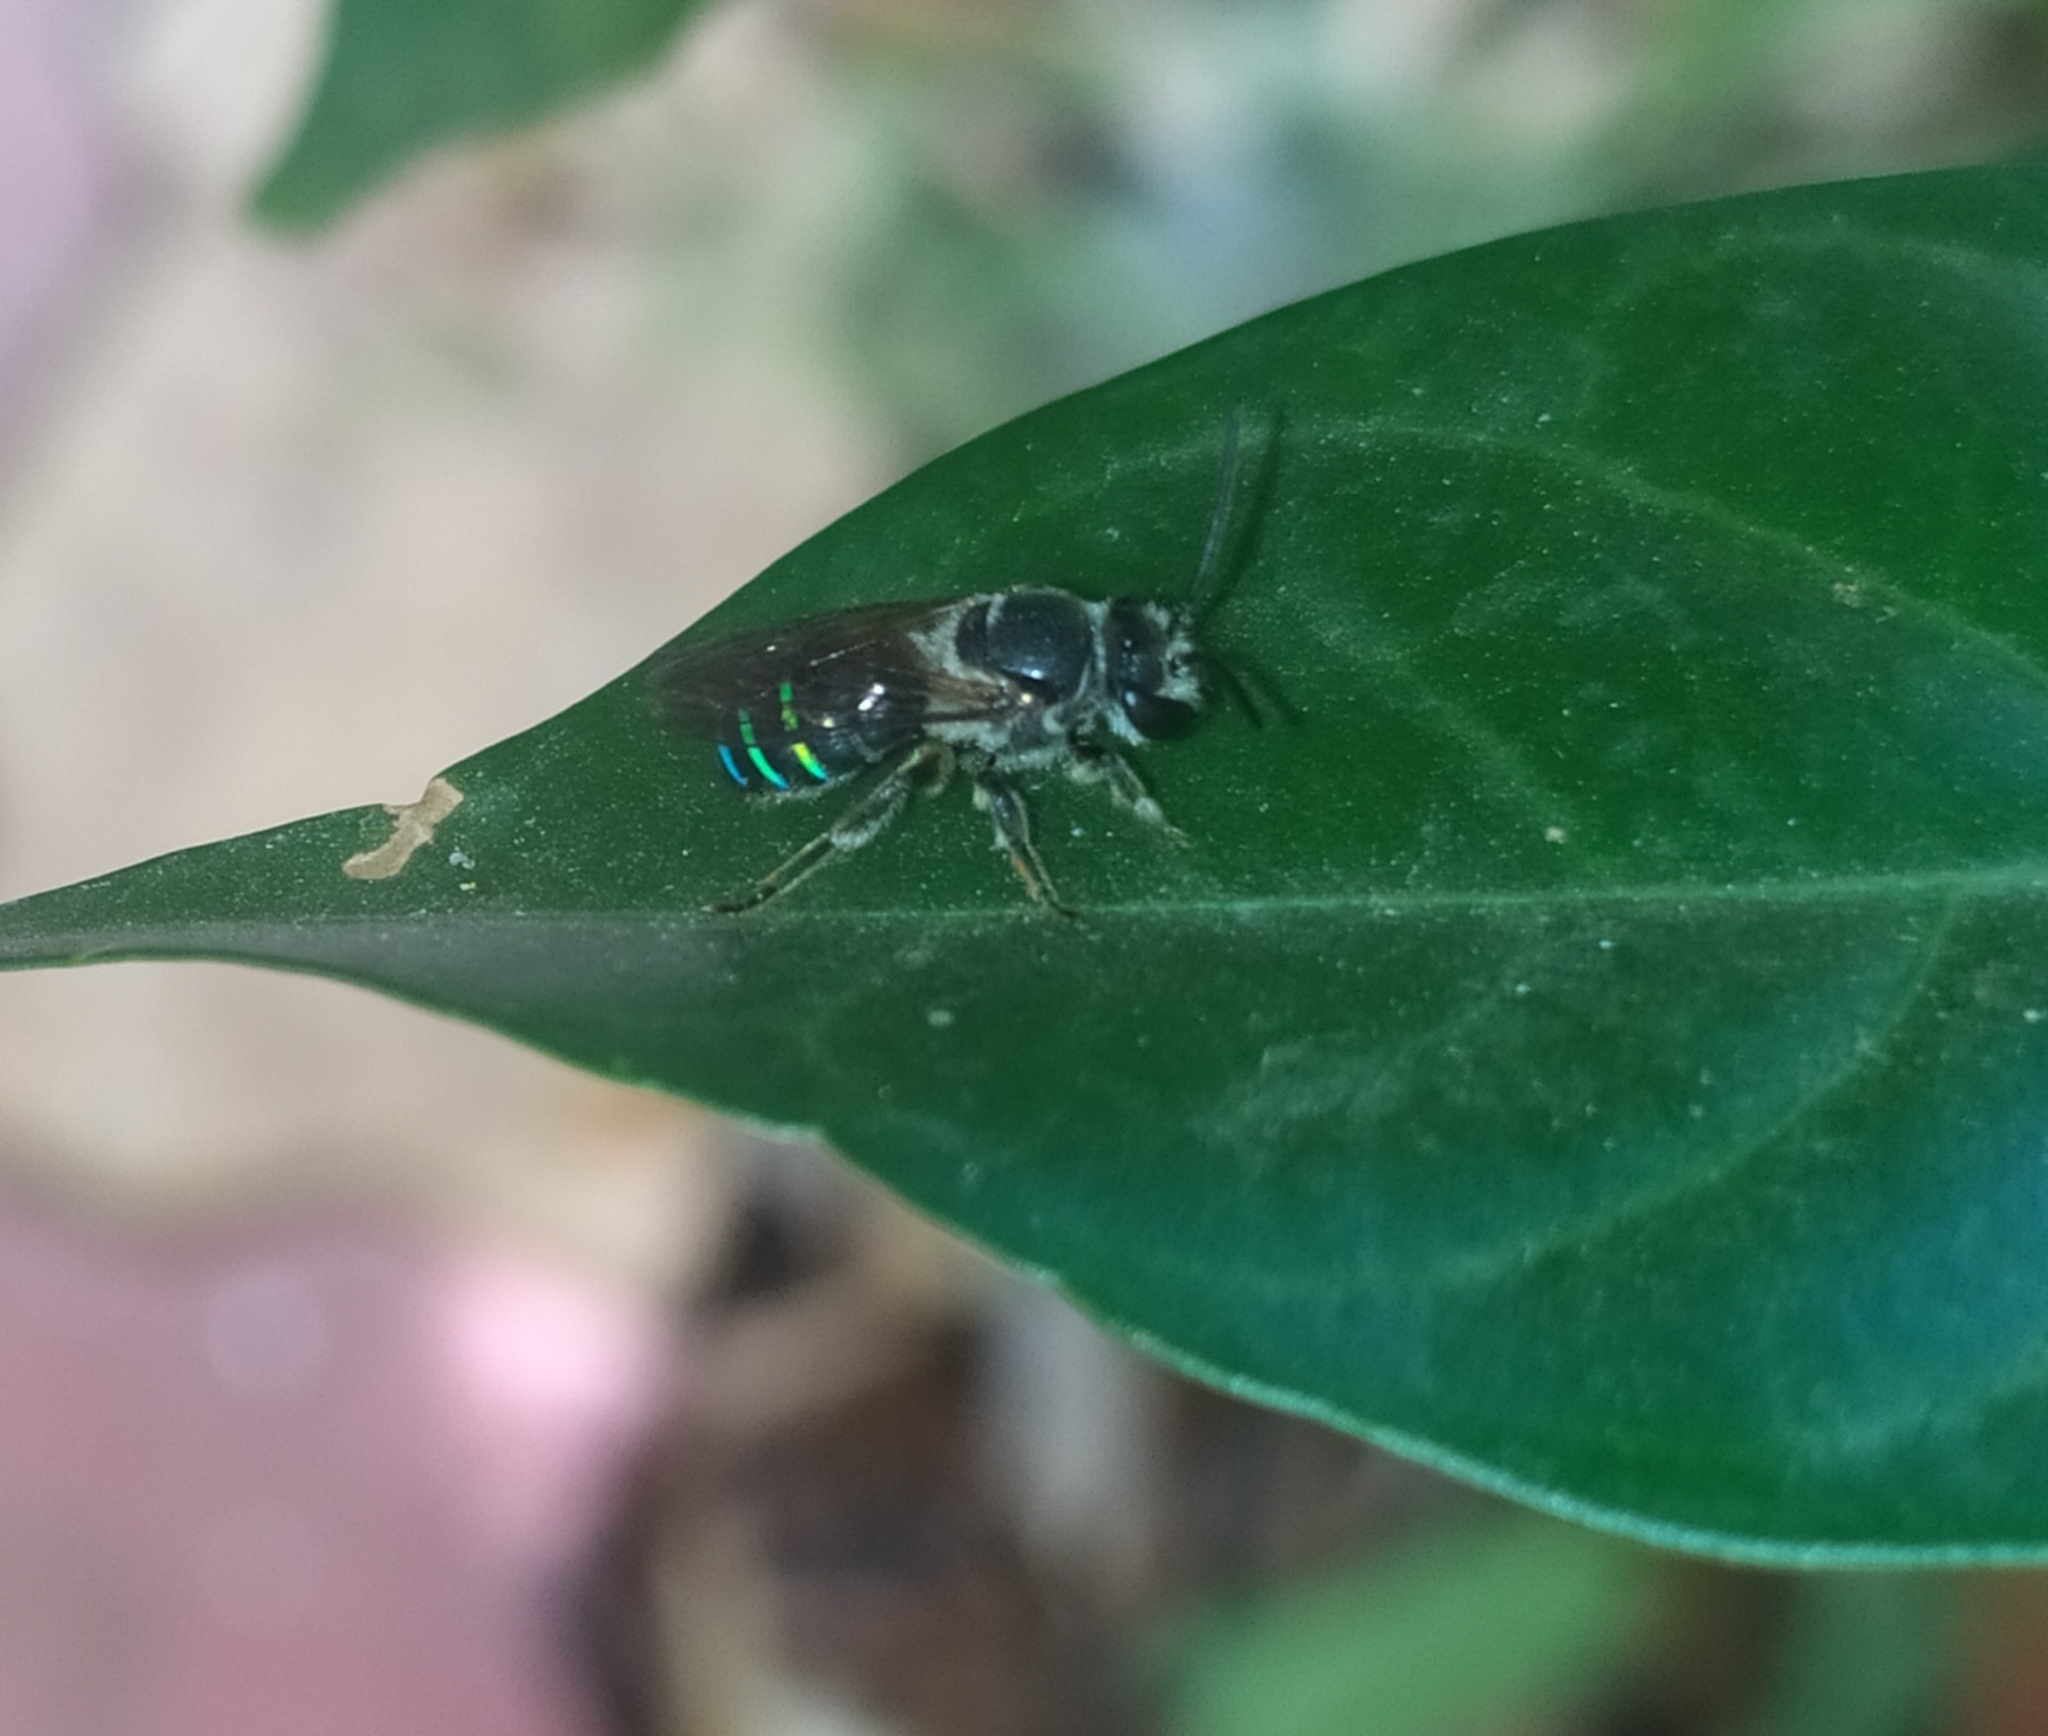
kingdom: Animalia
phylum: Arthropoda
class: Insecta
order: Hymenoptera
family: Halictidae
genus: Nomia
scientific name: Nomia iridescens
